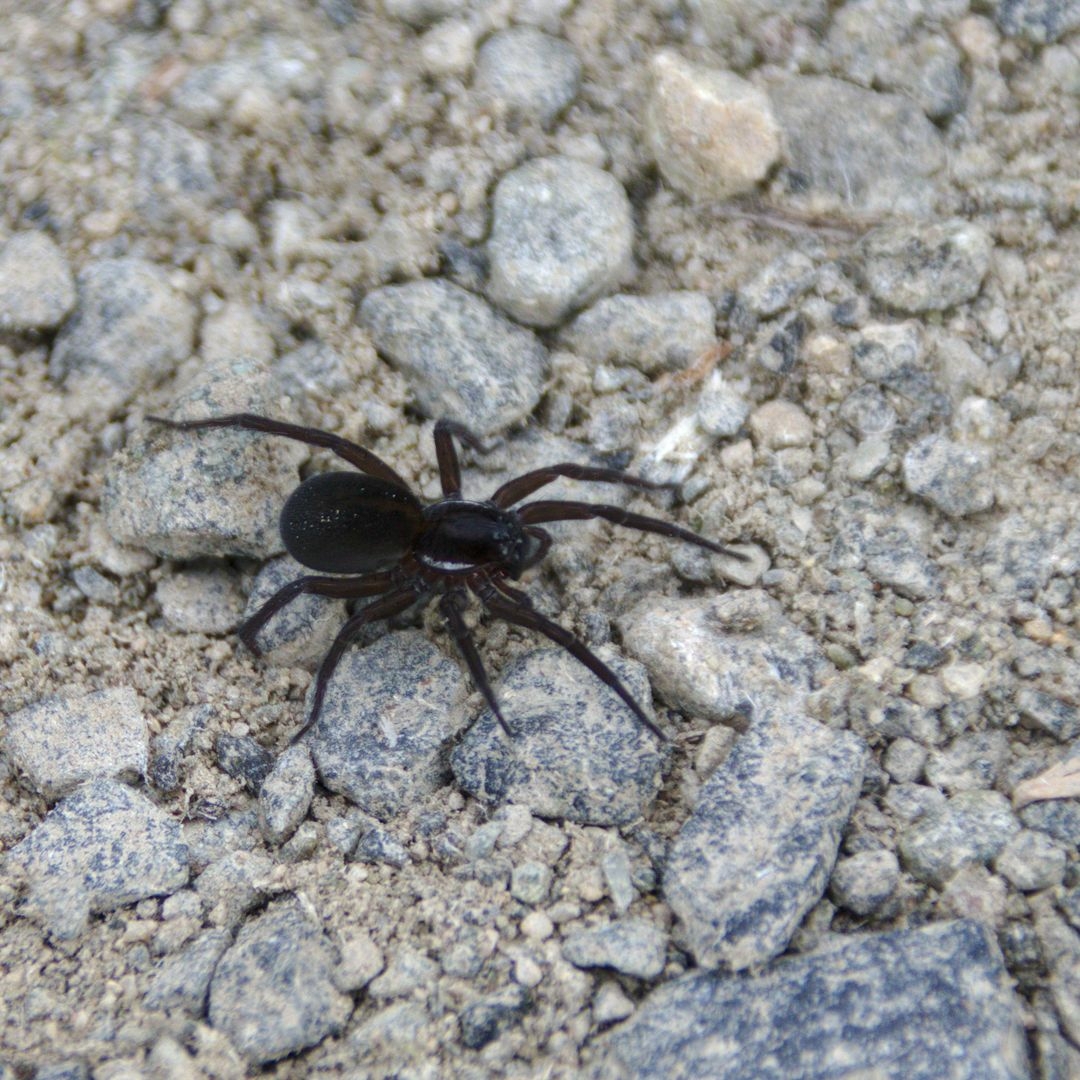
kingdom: Animalia
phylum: Arthropoda
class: Arachnida
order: Araneae
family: Pisauridae
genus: Dolomedes
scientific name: Dolomedes
